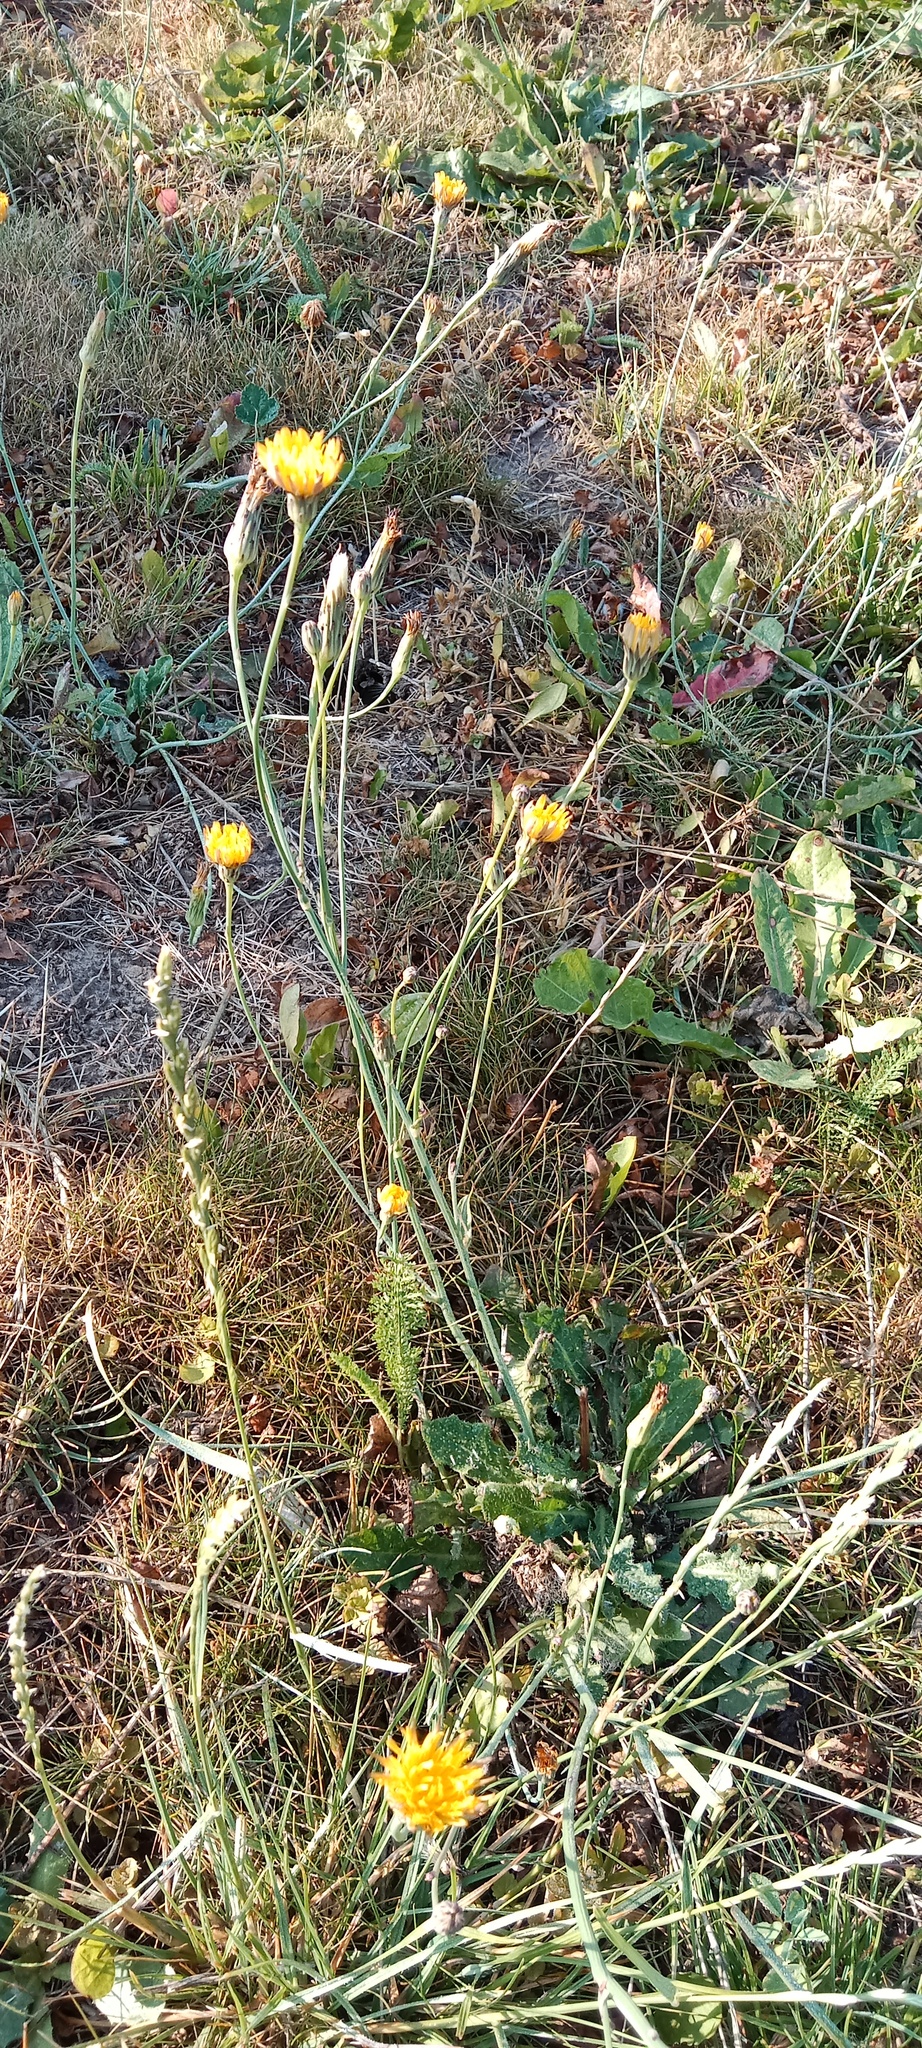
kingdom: Plantae
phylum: Tracheophyta
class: Magnoliopsida
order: Asterales
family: Asteraceae
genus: Hypochaeris
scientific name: Hypochaeris radicata
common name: Flatweed
